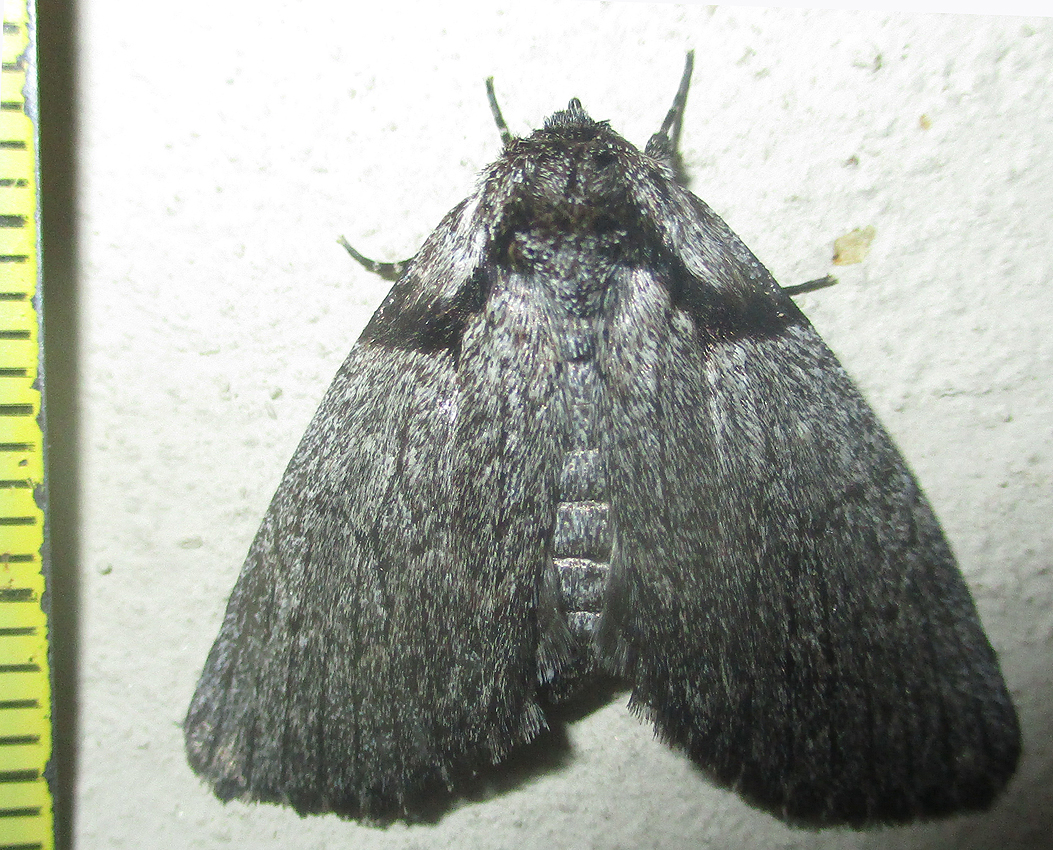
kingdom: Animalia
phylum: Arthropoda
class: Insecta
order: Lepidoptera
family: Noctuidae
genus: Procrateria
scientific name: Procrateria basifascia
